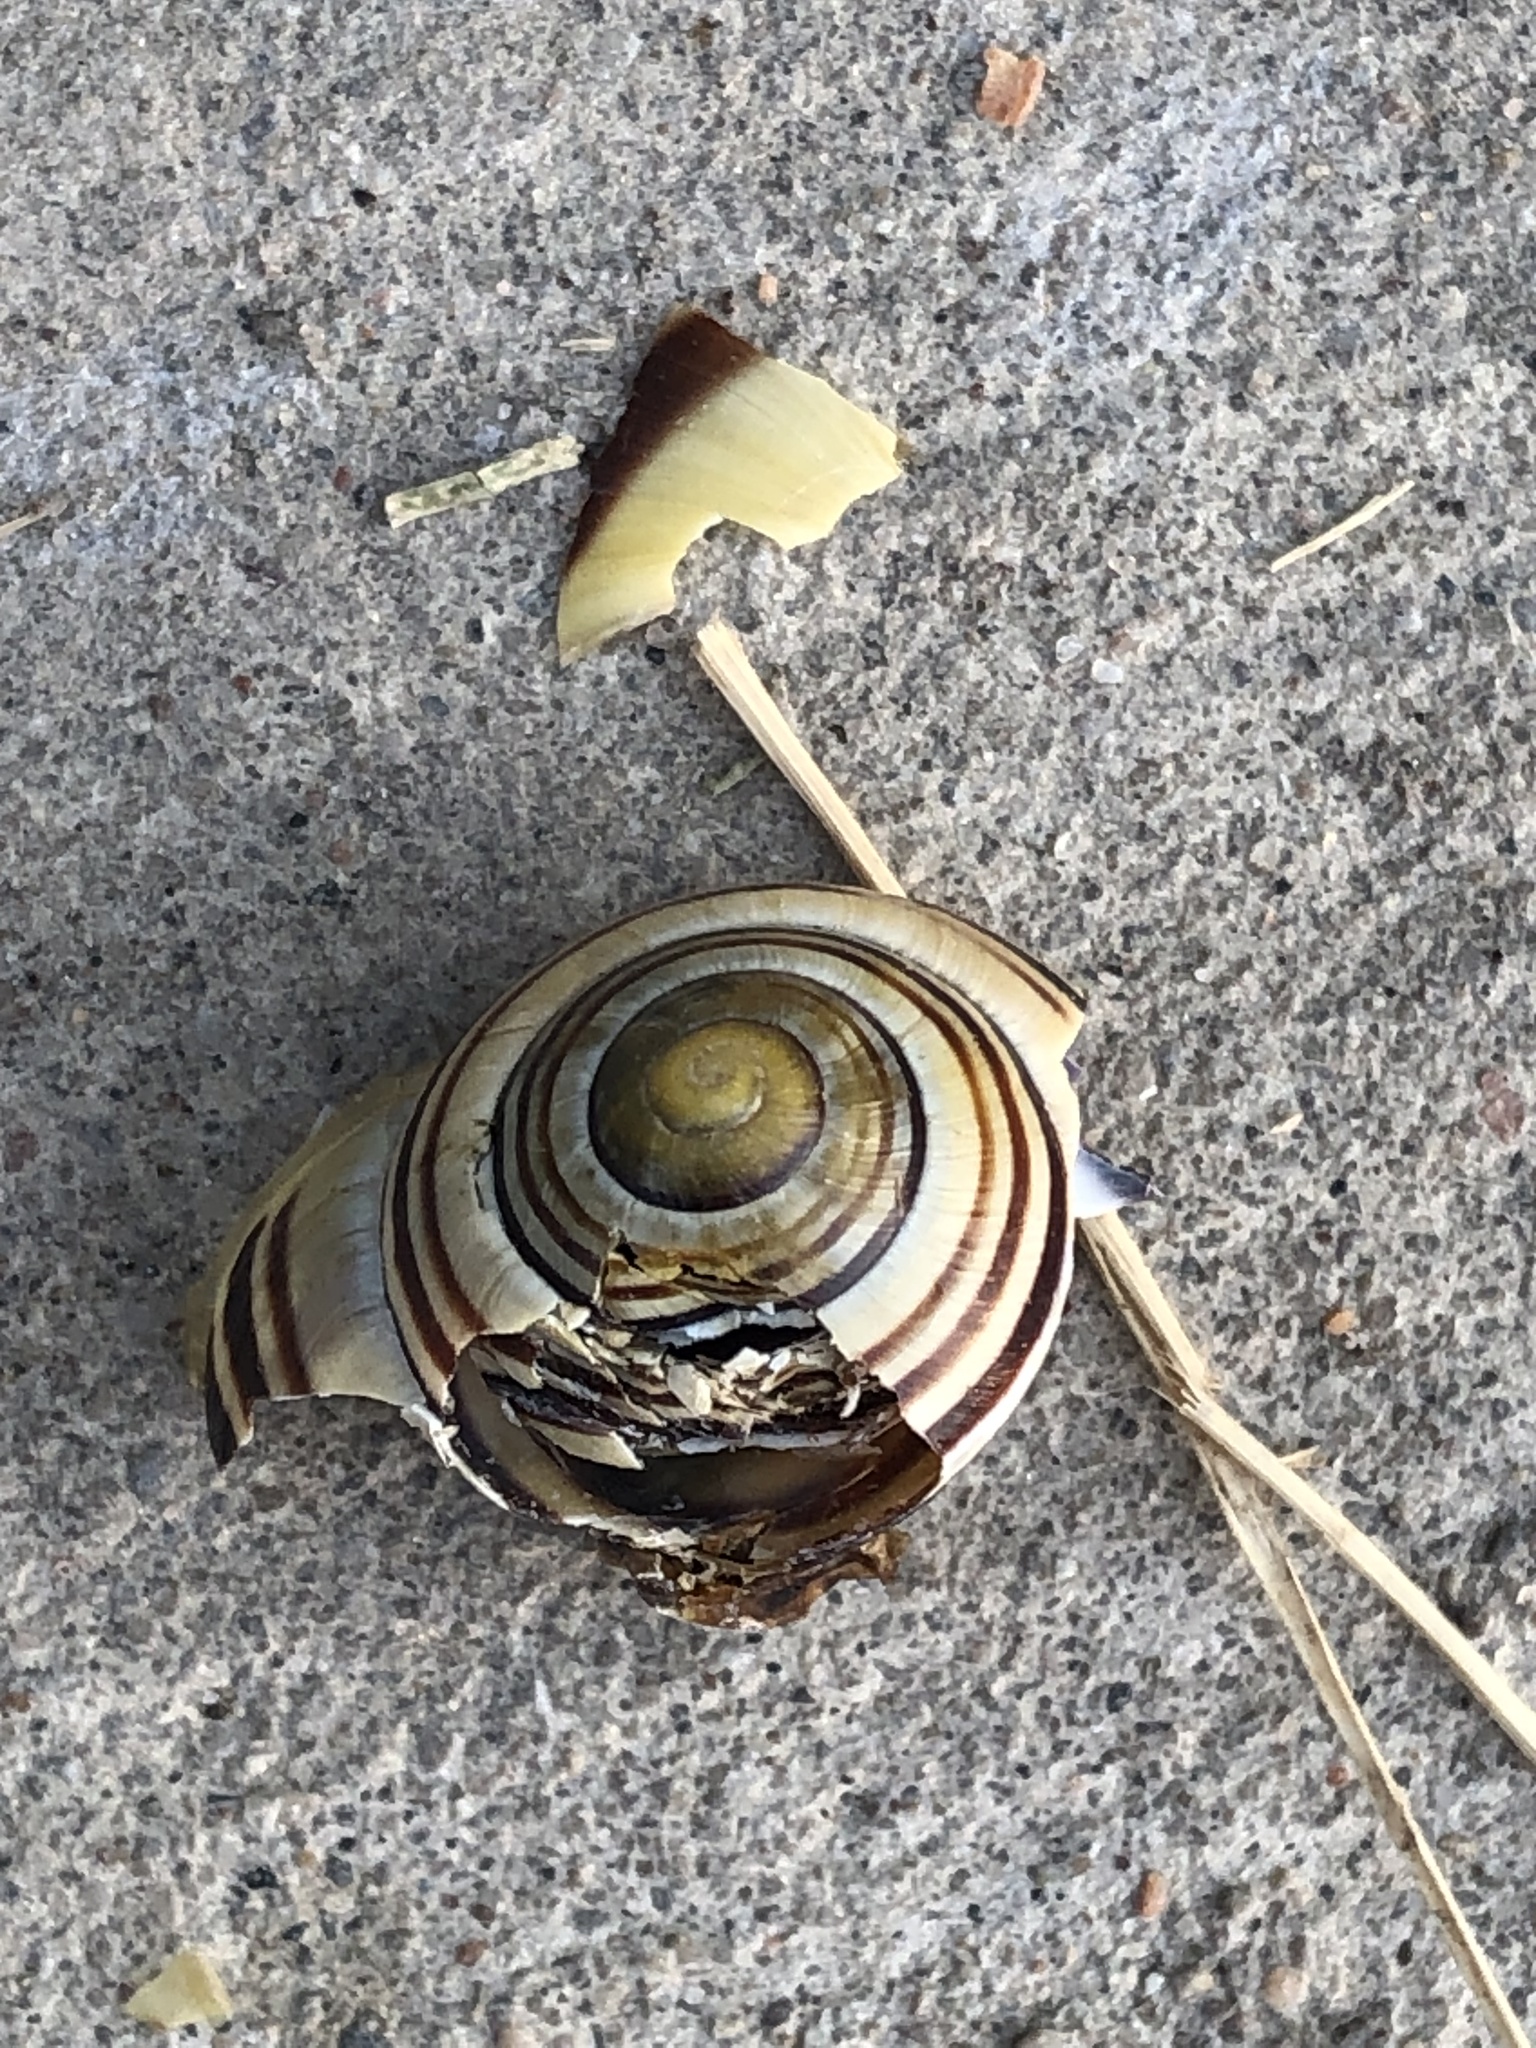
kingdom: Animalia
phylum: Mollusca
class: Gastropoda
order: Stylommatophora
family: Helicidae
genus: Cepaea
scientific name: Cepaea nemoralis
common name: Grovesnail
